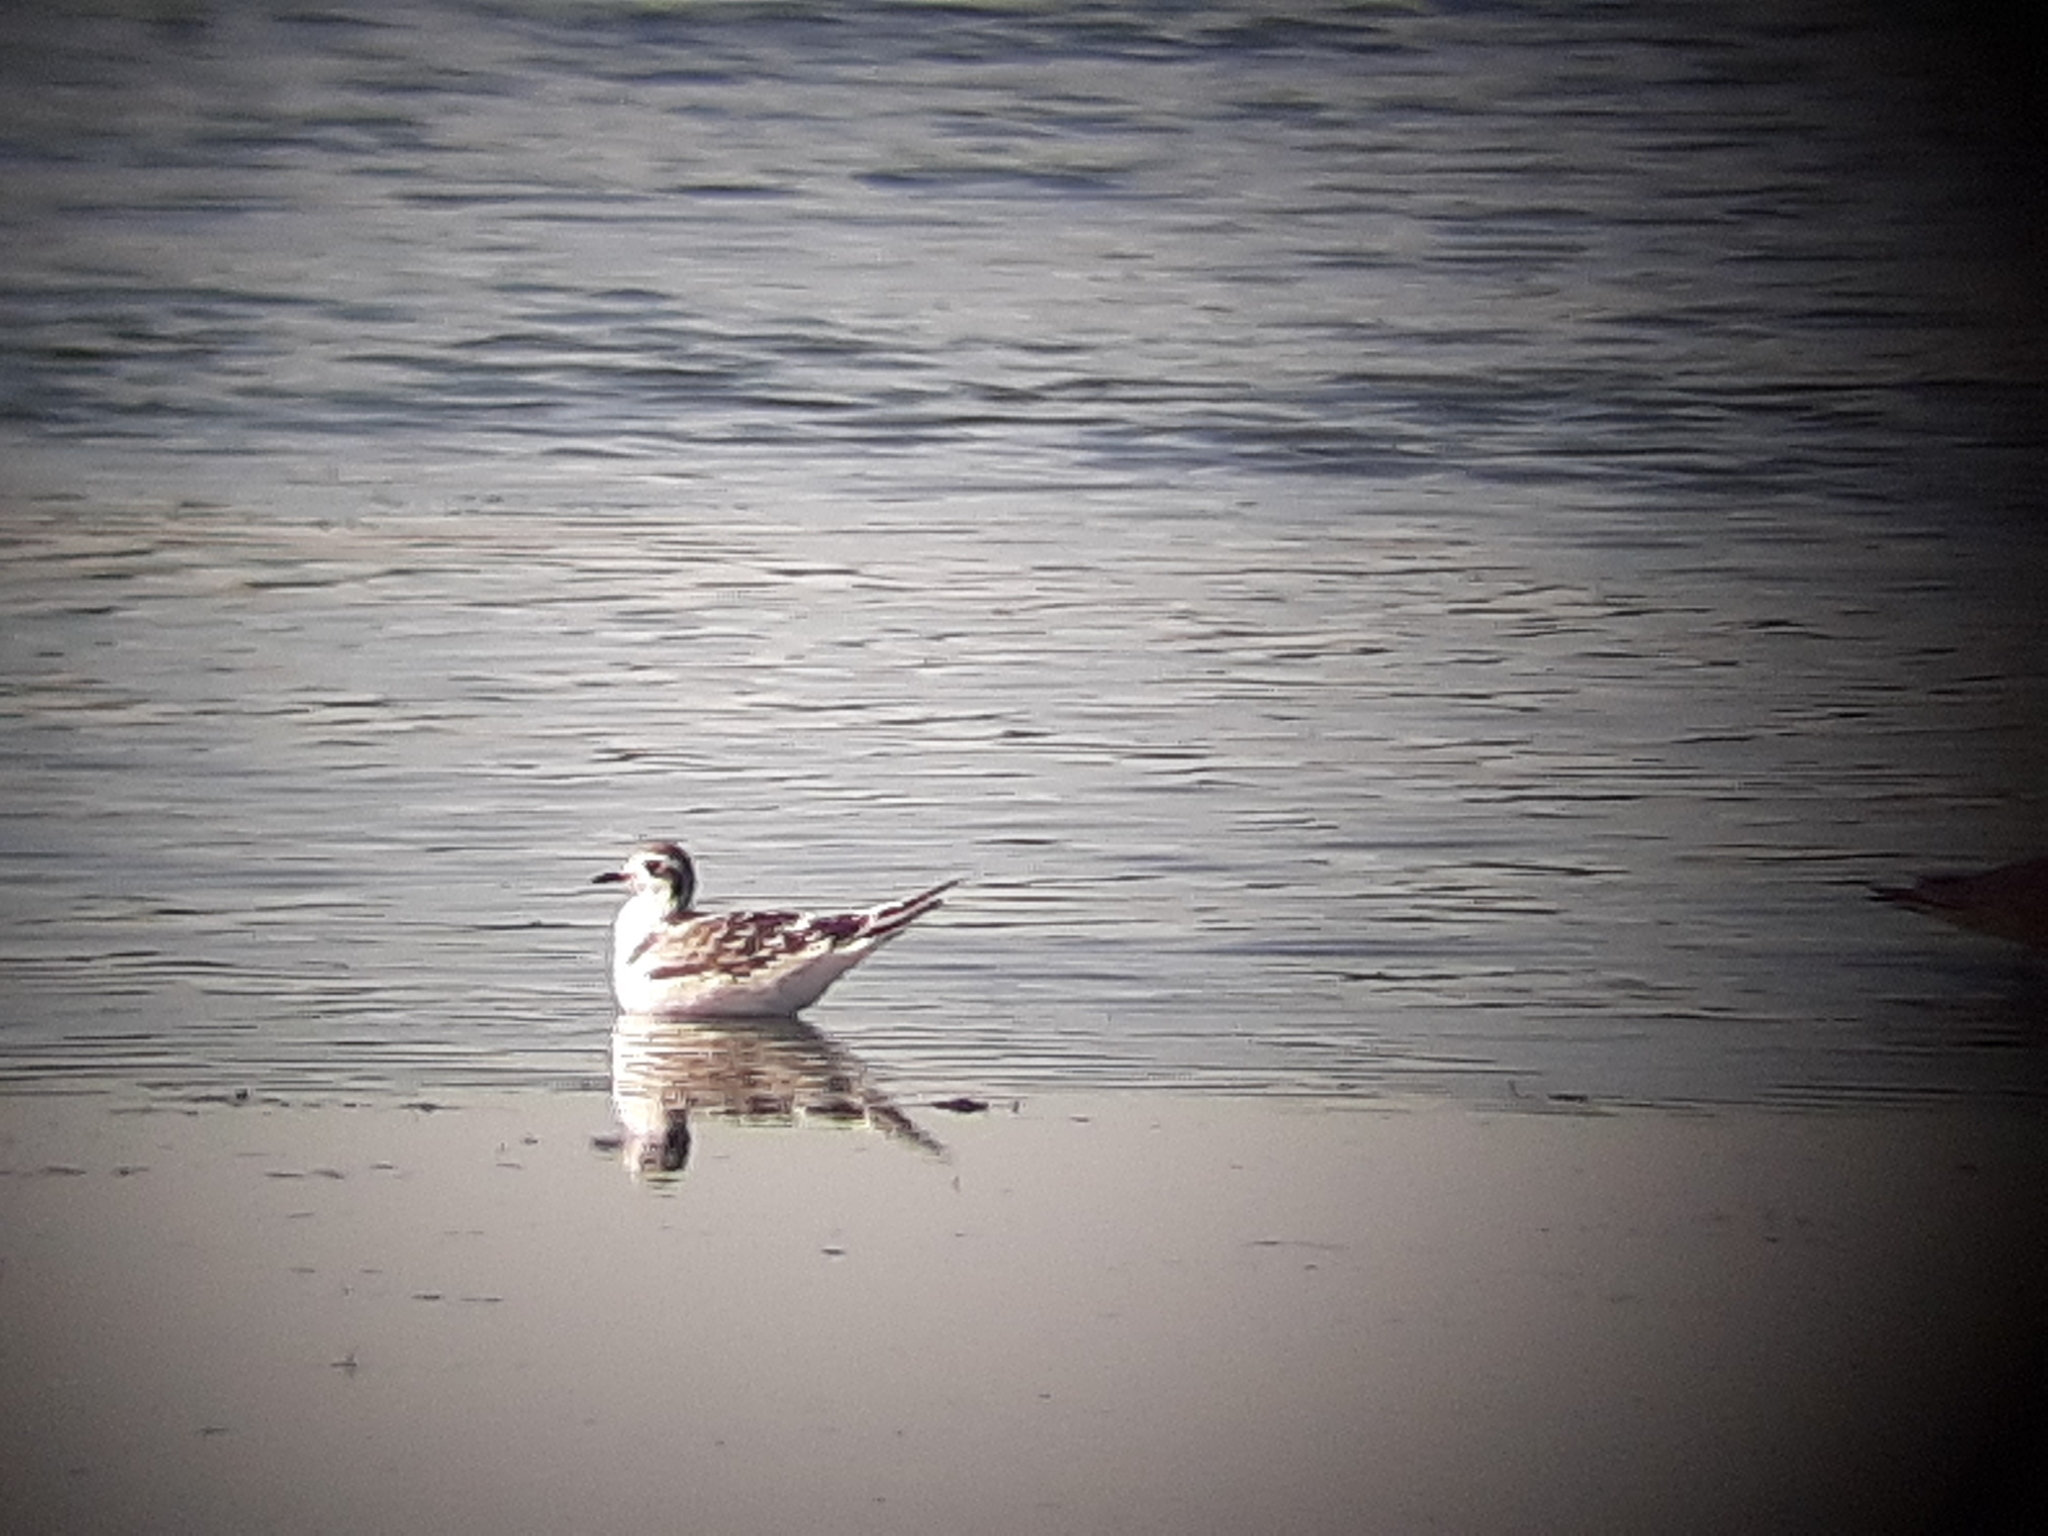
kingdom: Animalia
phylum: Chordata
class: Aves
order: Charadriiformes
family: Laridae
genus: Hydrocoloeus
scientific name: Hydrocoloeus minutus
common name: Little gull
